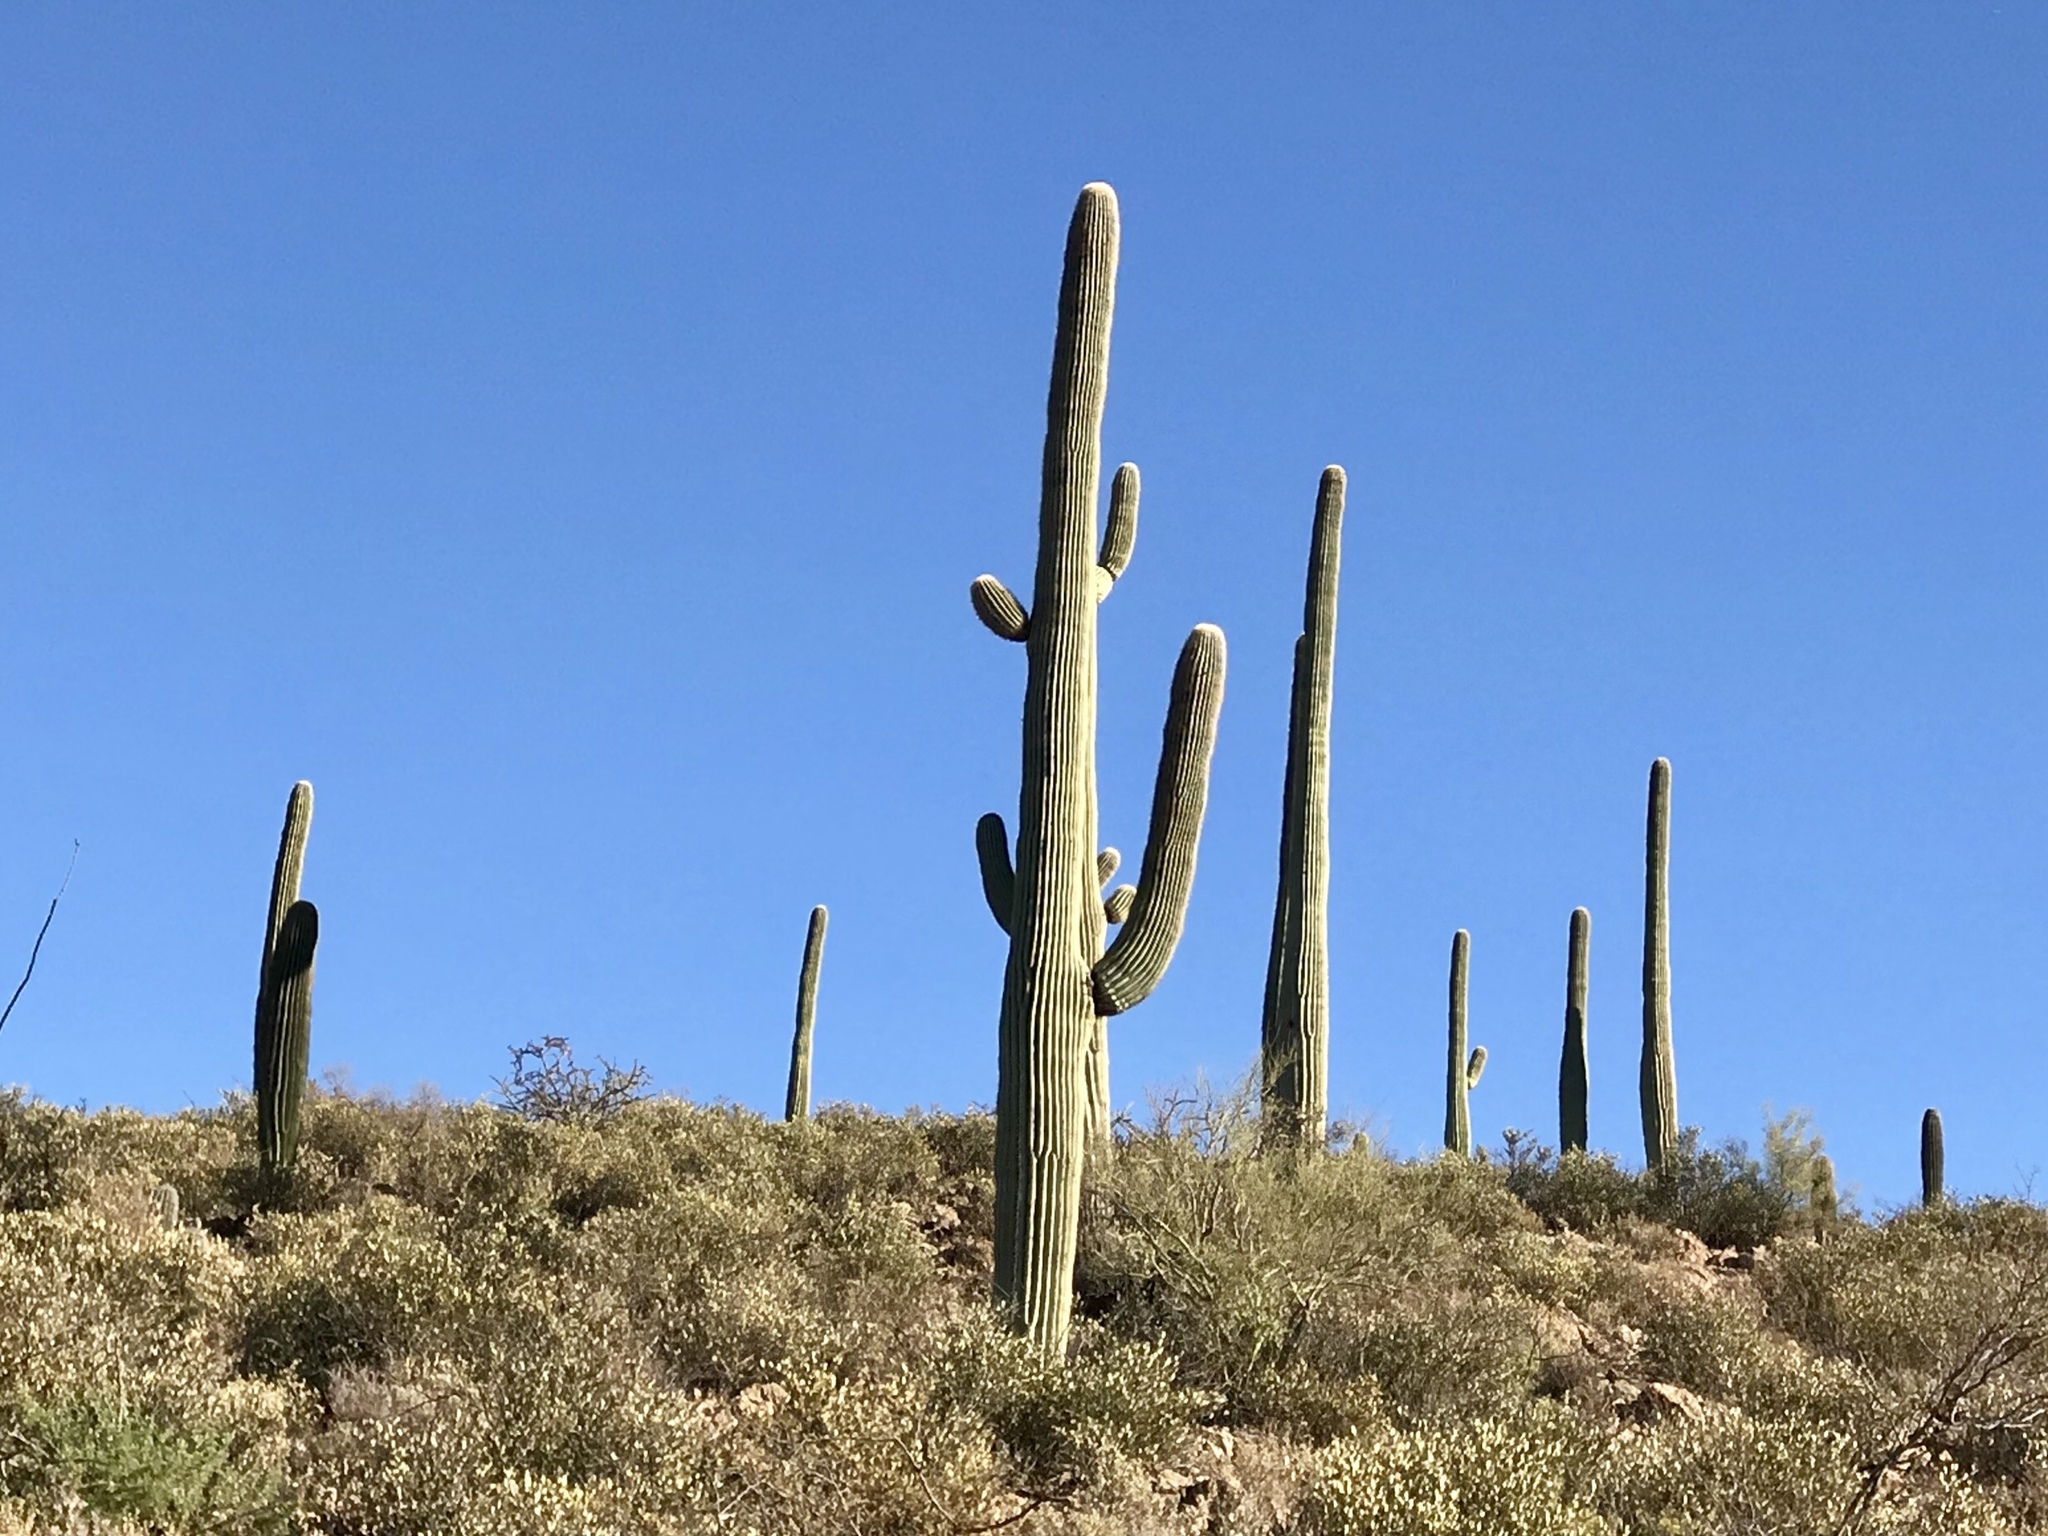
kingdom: Plantae
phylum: Tracheophyta
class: Magnoliopsida
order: Caryophyllales
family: Cactaceae
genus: Carnegiea
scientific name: Carnegiea gigantea
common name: Saguaro
